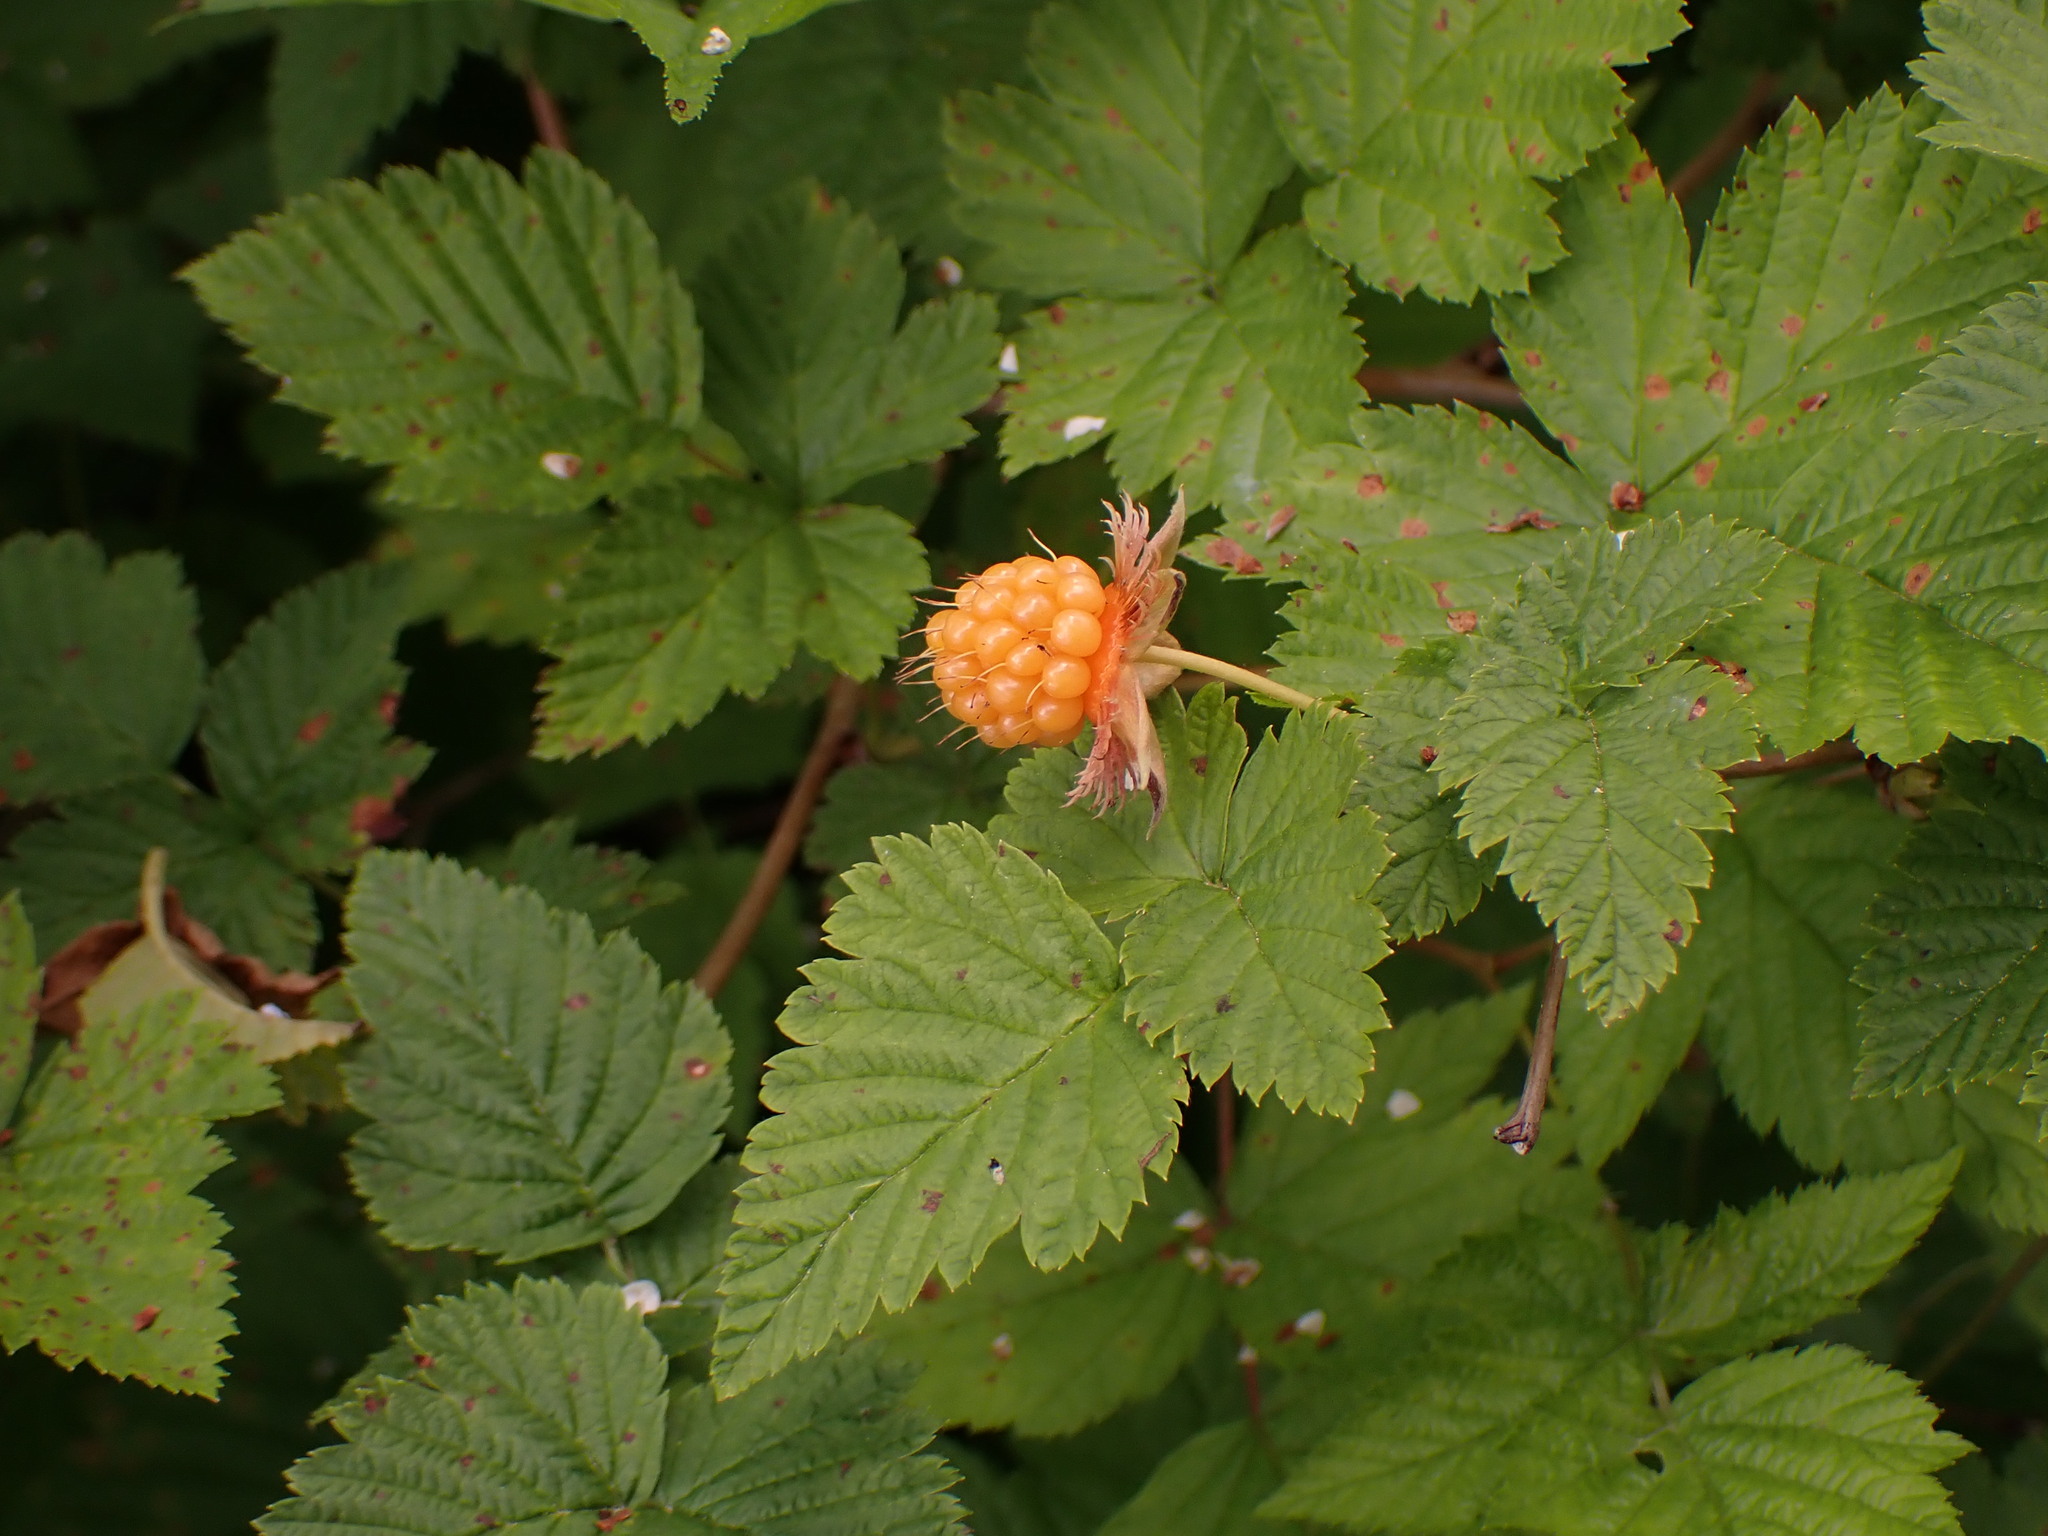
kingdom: Plantae
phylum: Tracheophyta
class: Magnoliopsida
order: Rosales
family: Rosaceae
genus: Rubus
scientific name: Rubus spectabilis
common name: Salmonberry
